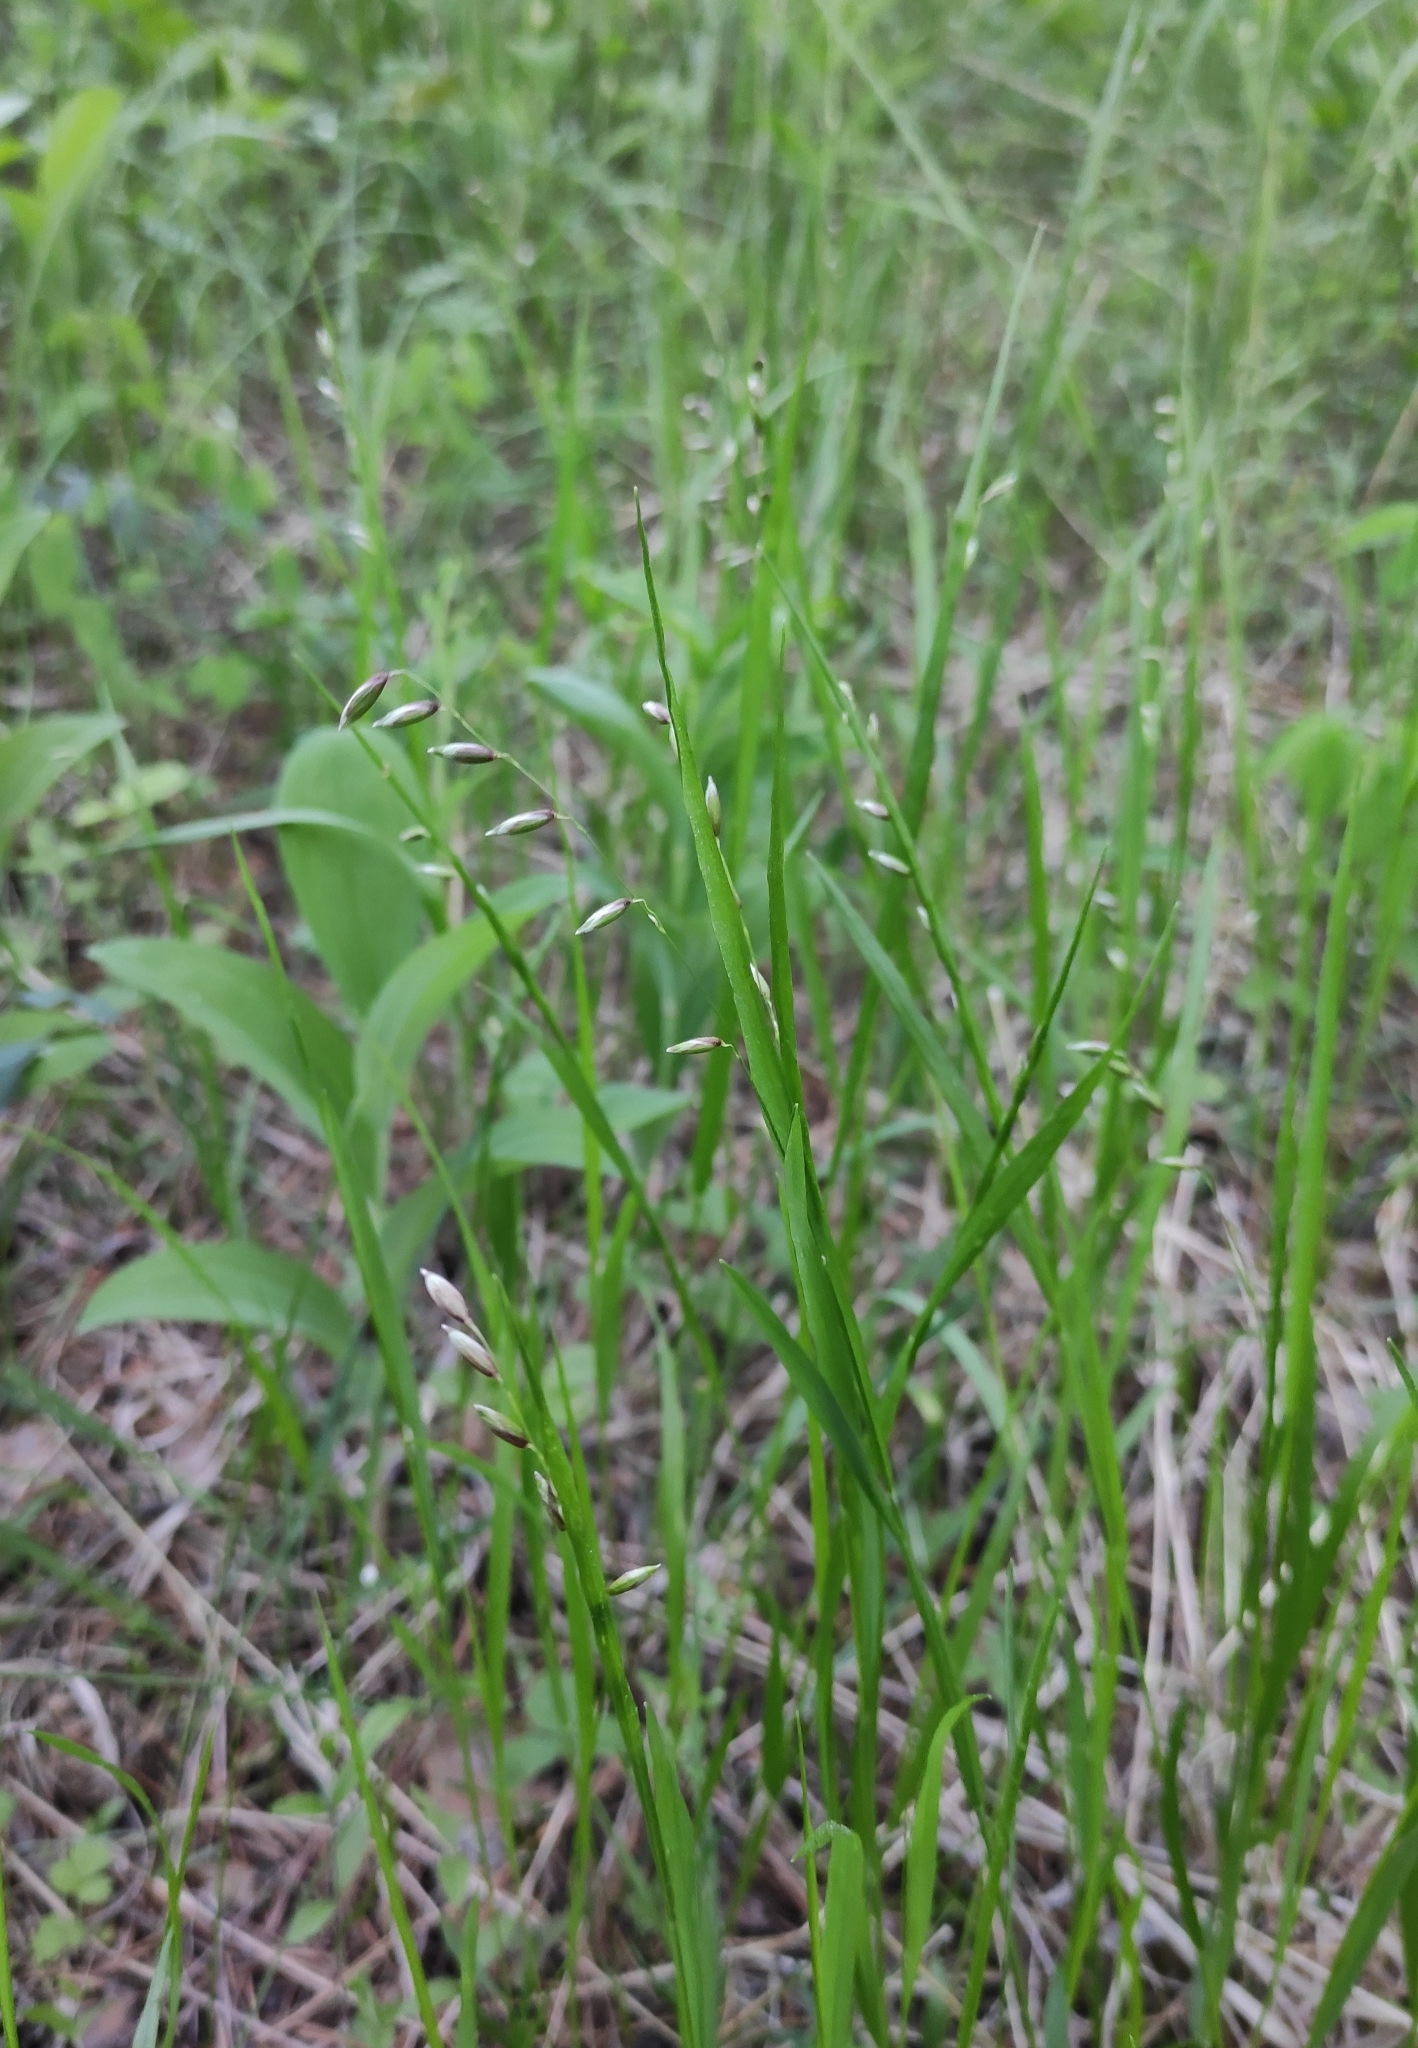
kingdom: Plantae
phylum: Tracheophyta
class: Liliopsida
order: Poales
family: Poaceae
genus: Melica
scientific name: Melica nutans
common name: Mountain melick
